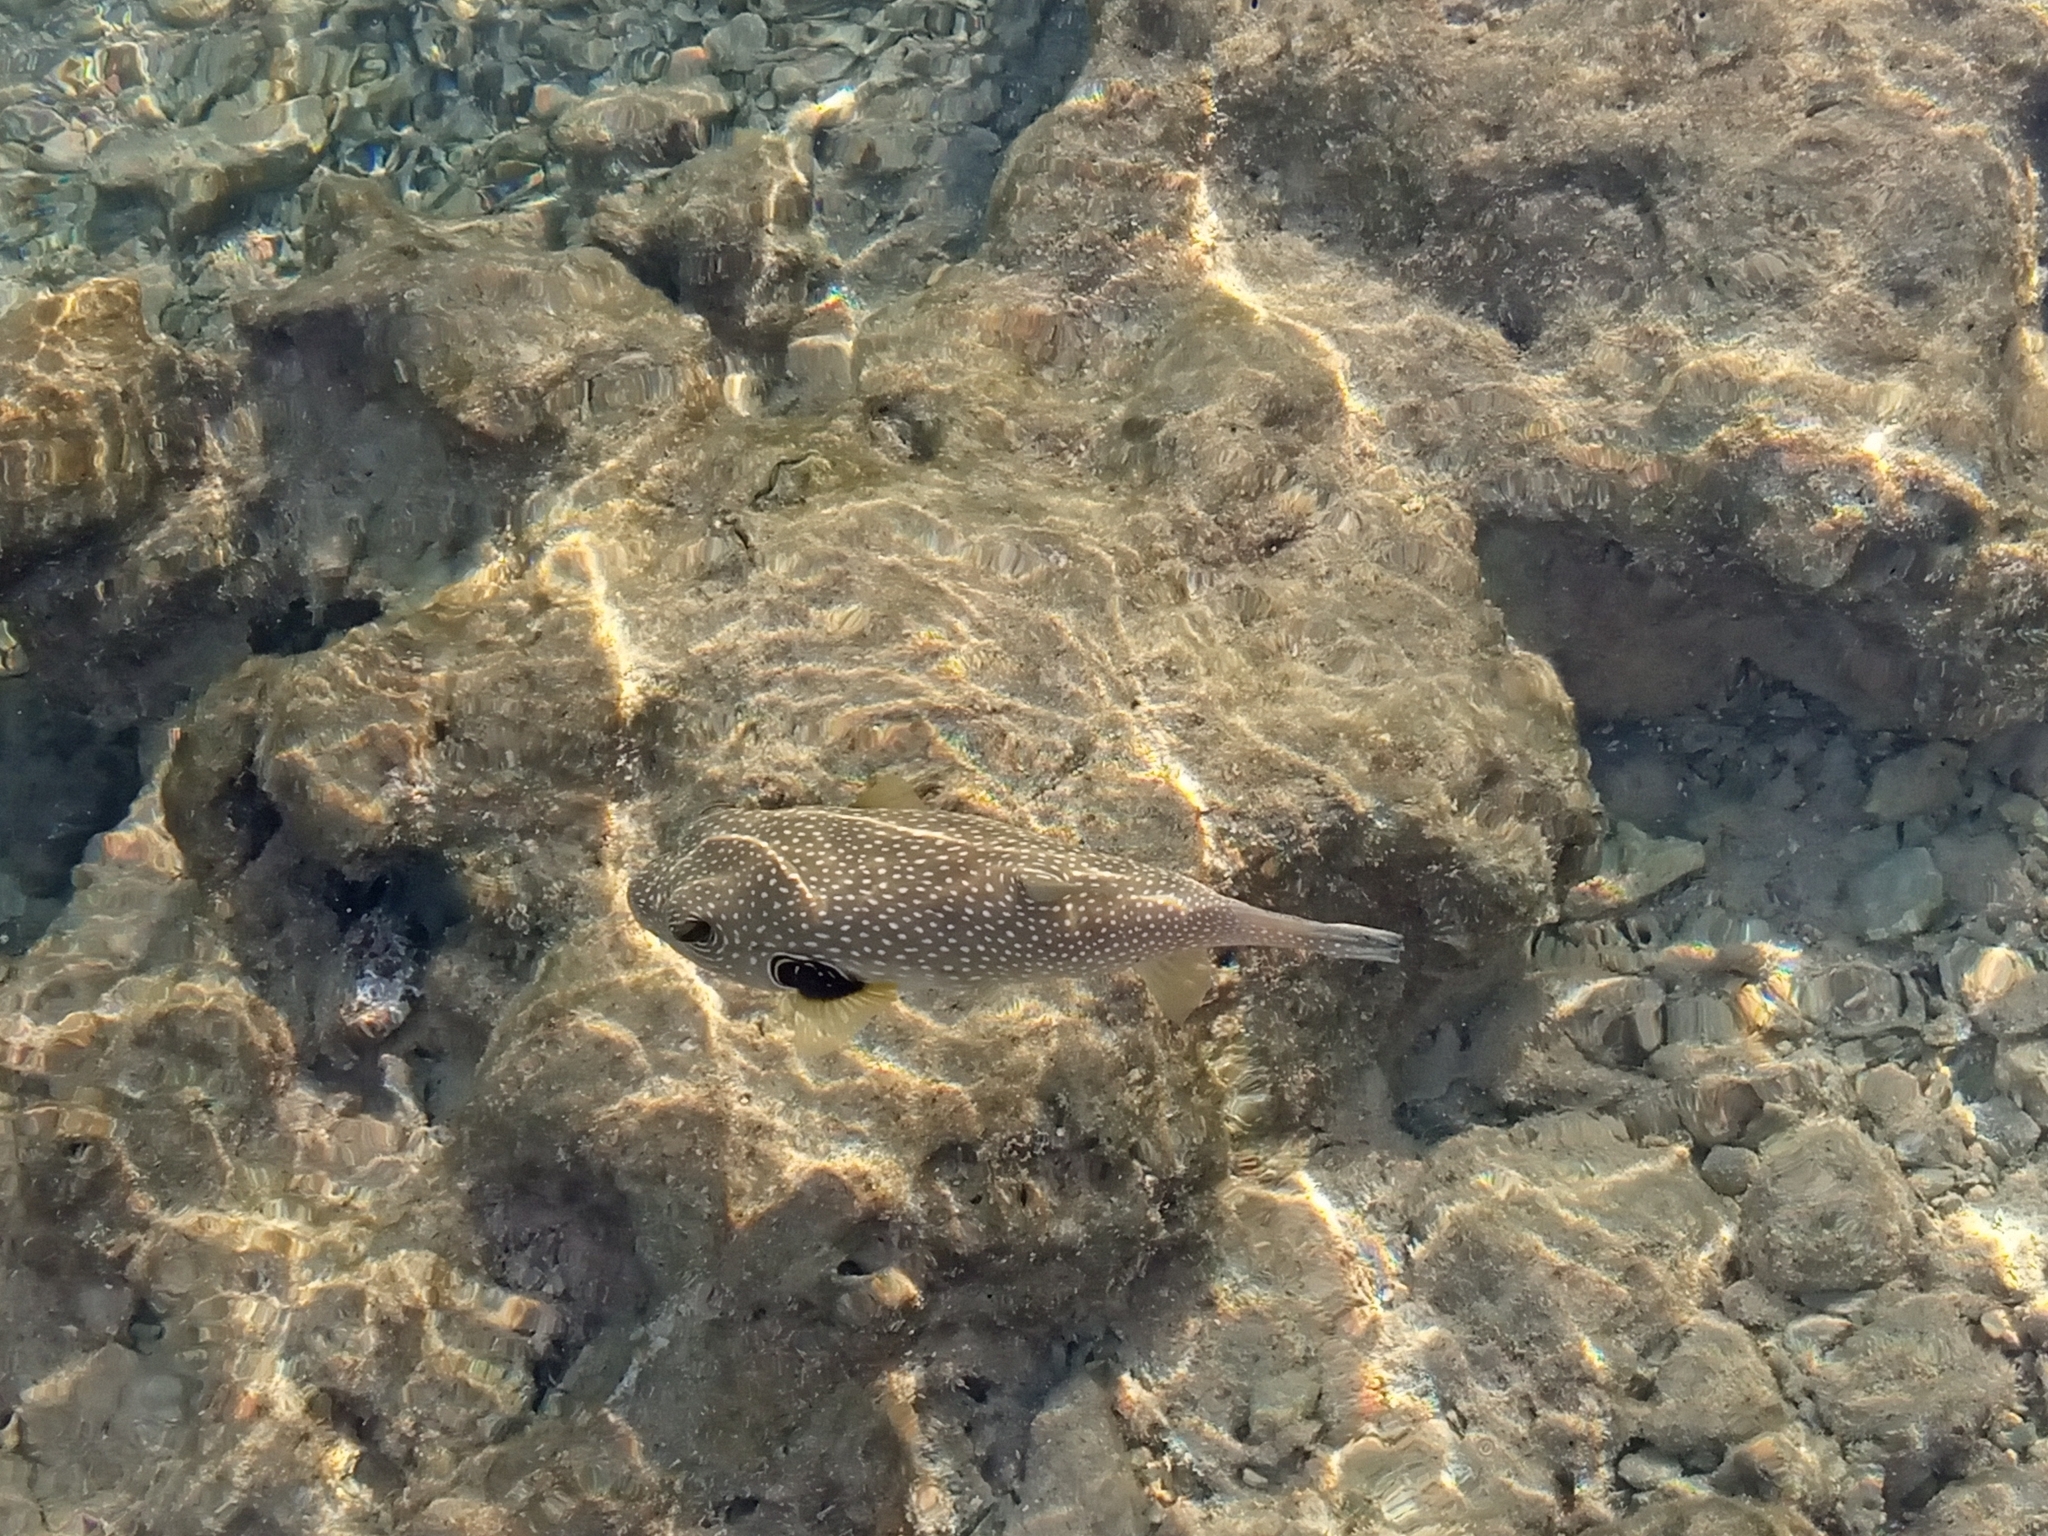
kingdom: Animalia
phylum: Chordata
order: Tetraodontiformes
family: Tetraodontidae
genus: Arothron
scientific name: Arothron hispidus
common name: Stripebelly puffer
